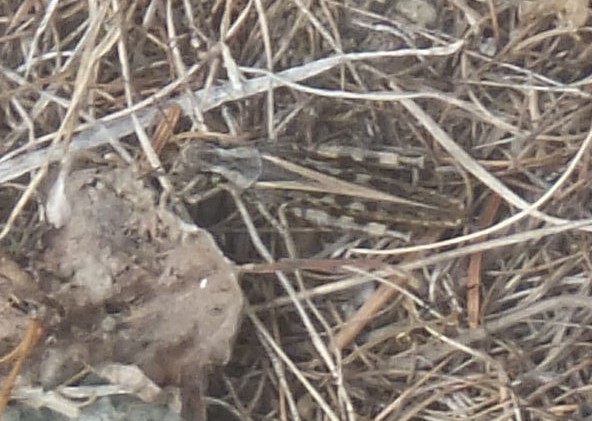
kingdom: Animalia
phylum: Arthropoda
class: Insecta
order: Orthoptera
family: Acrididae
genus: Camnula
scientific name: Camnula pellucida
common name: Clear-winged grasshopper
